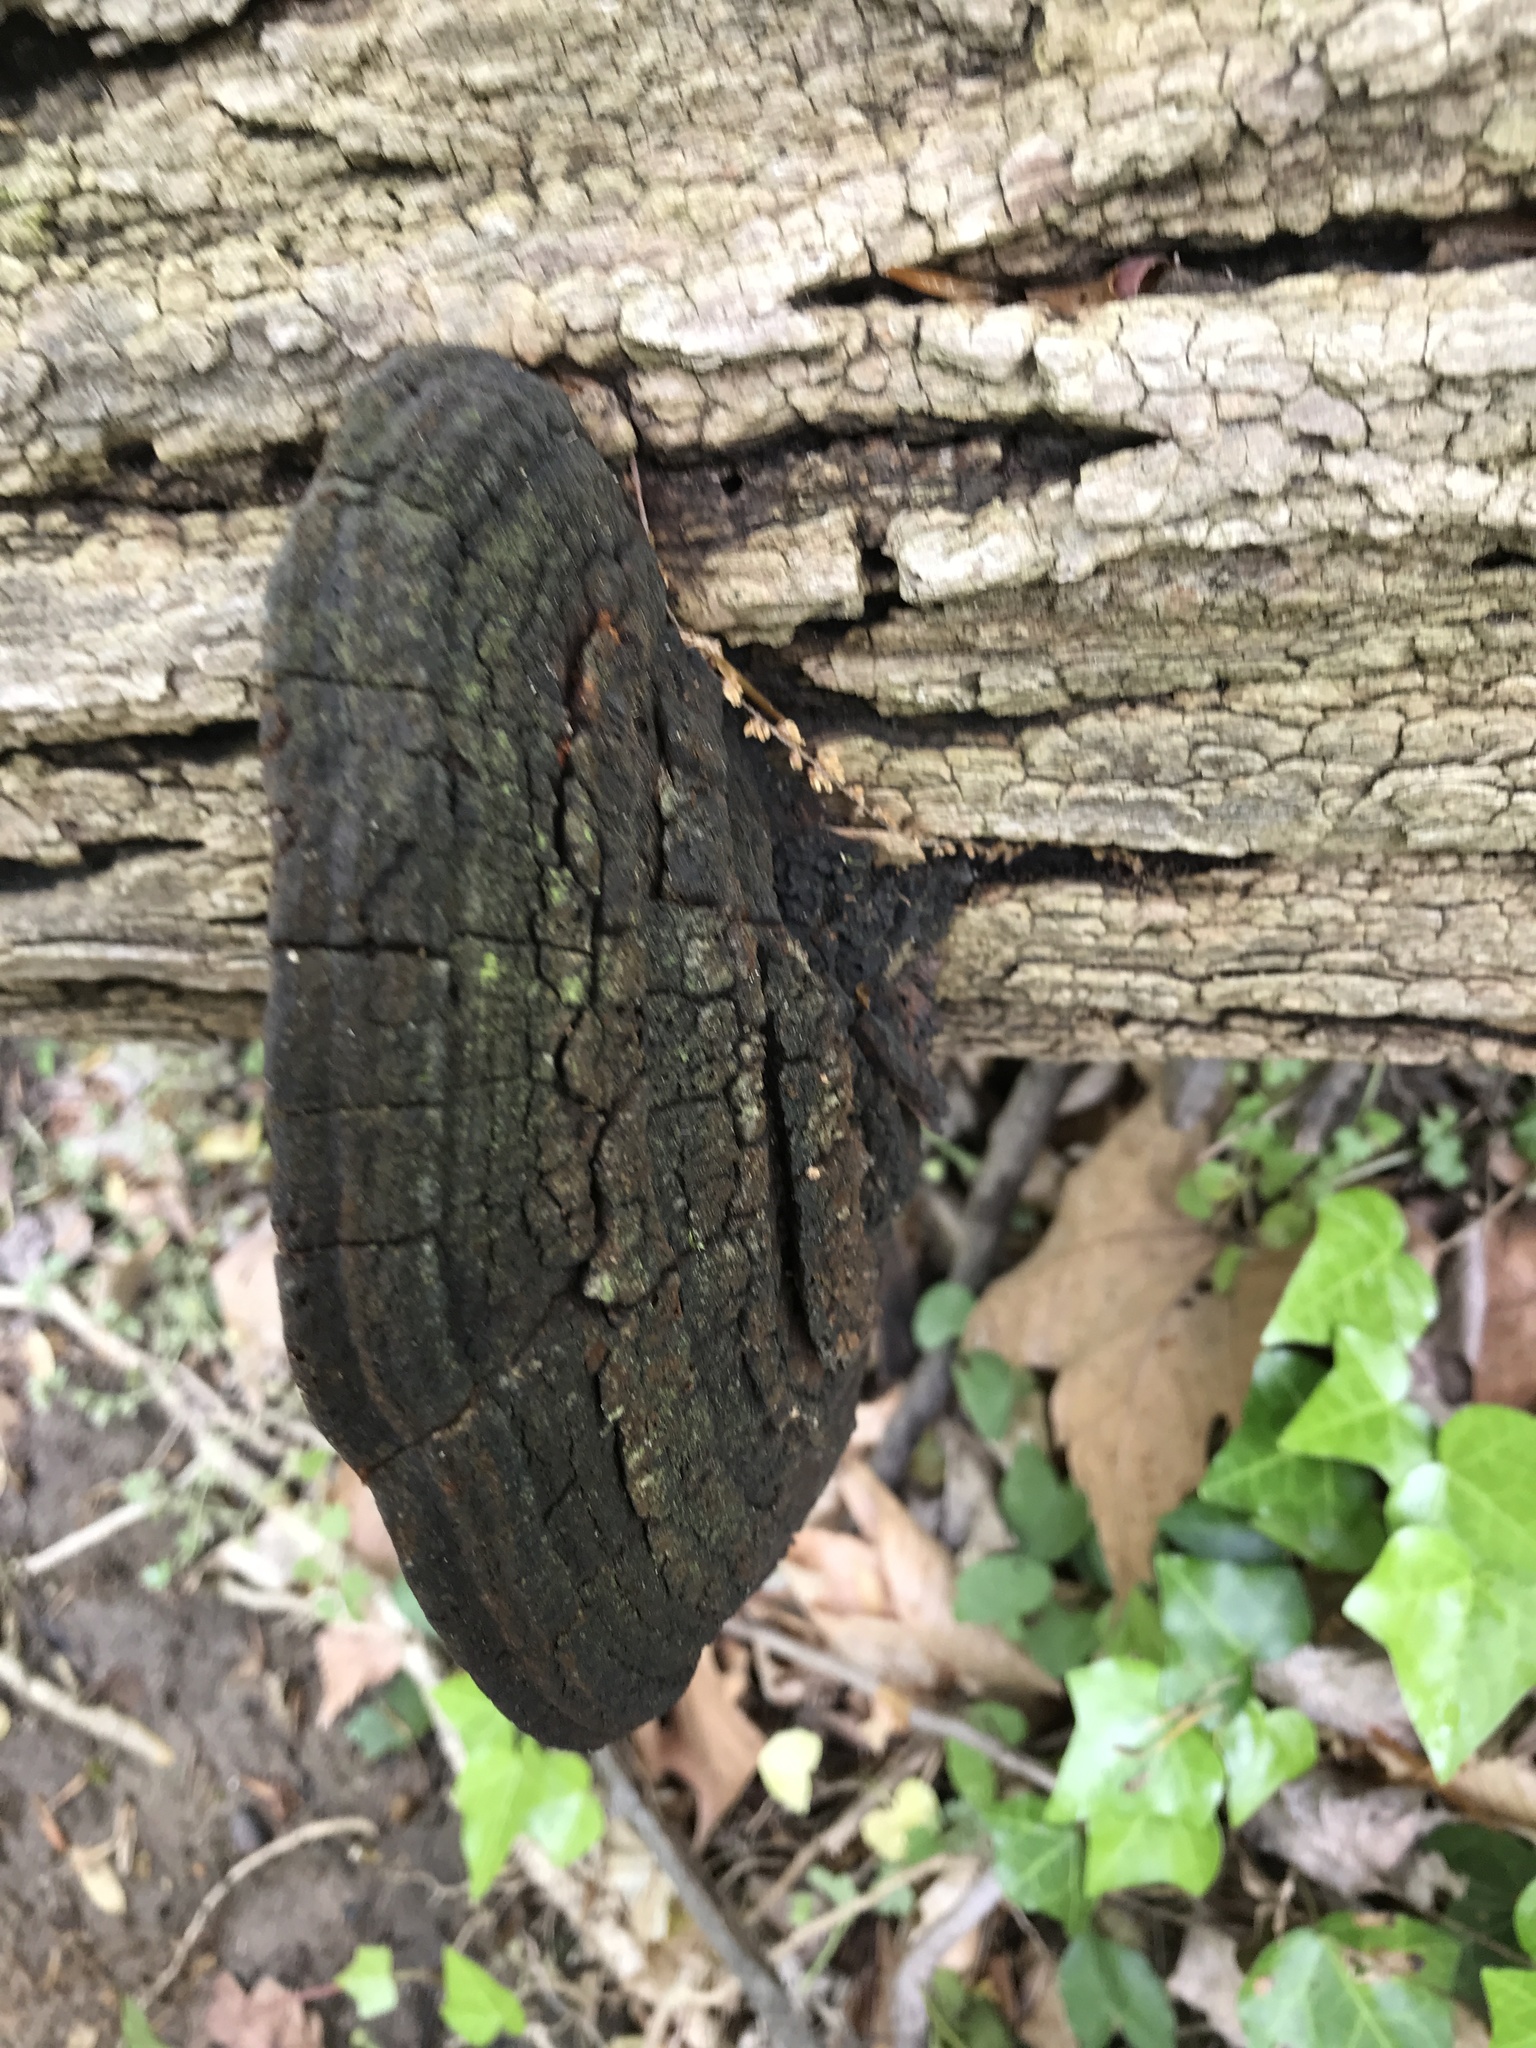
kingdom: Fungi
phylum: Basidiomycota
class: Agaricomycetes
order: Hymenochaetales
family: Hymenochaetaceae
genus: Phellinus
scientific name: Phellinus robiniae
